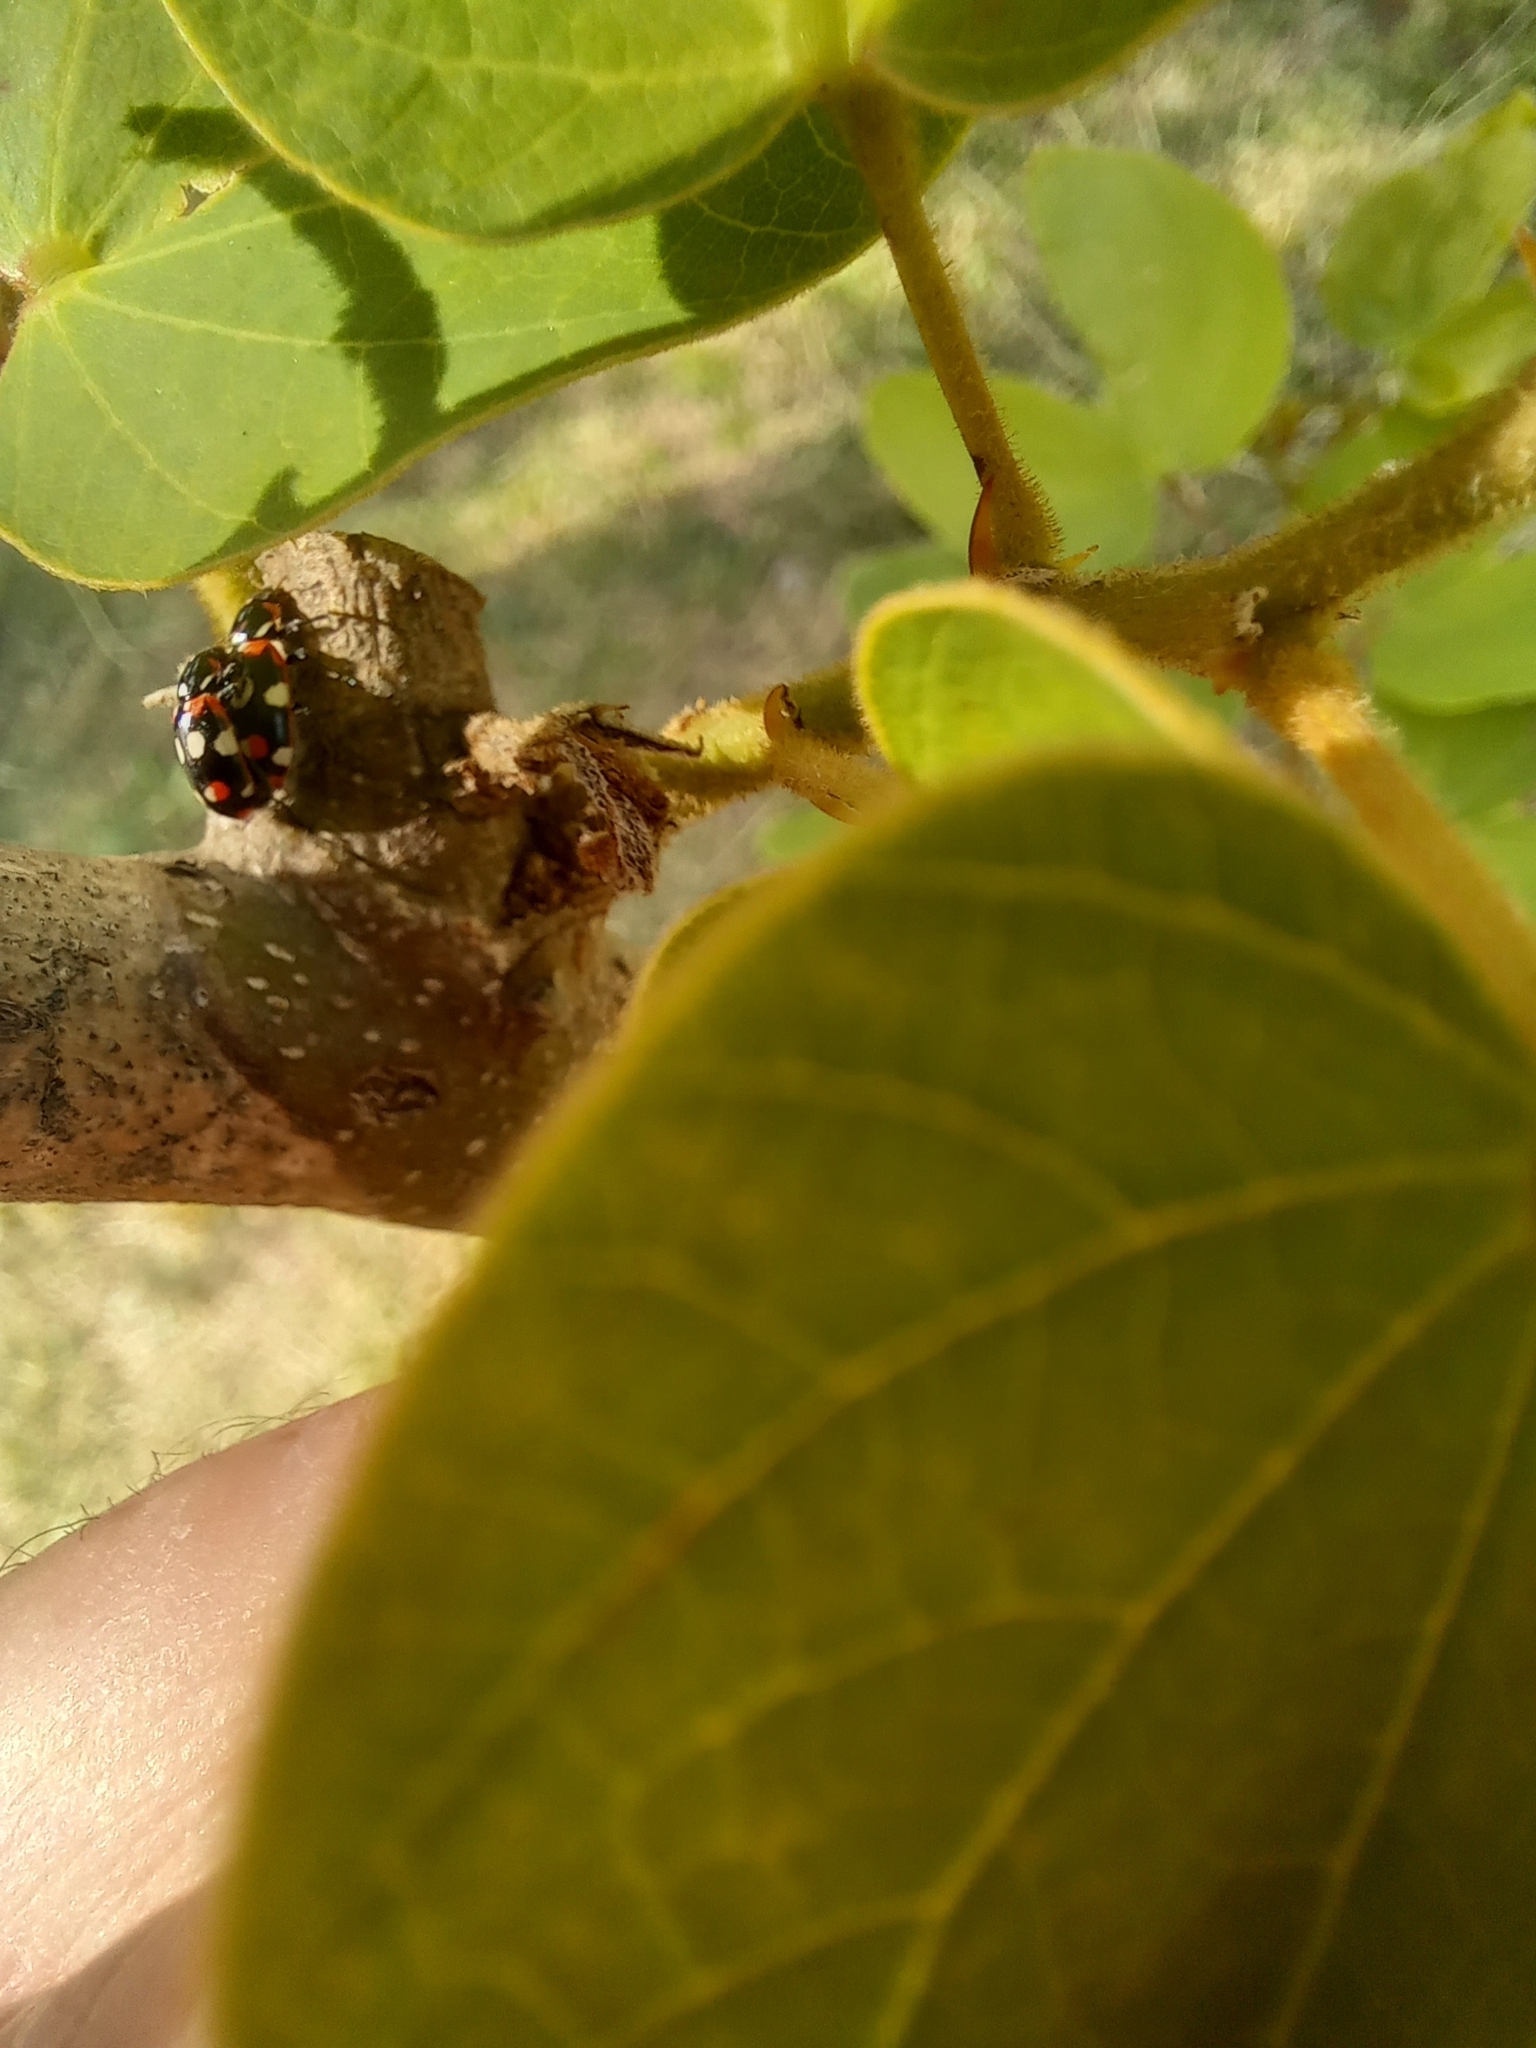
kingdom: Animalia
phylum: Arthropoda
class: Insecta
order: Coleoptera
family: Coccinellidae
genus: Eriopis
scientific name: Eriopis connexa
